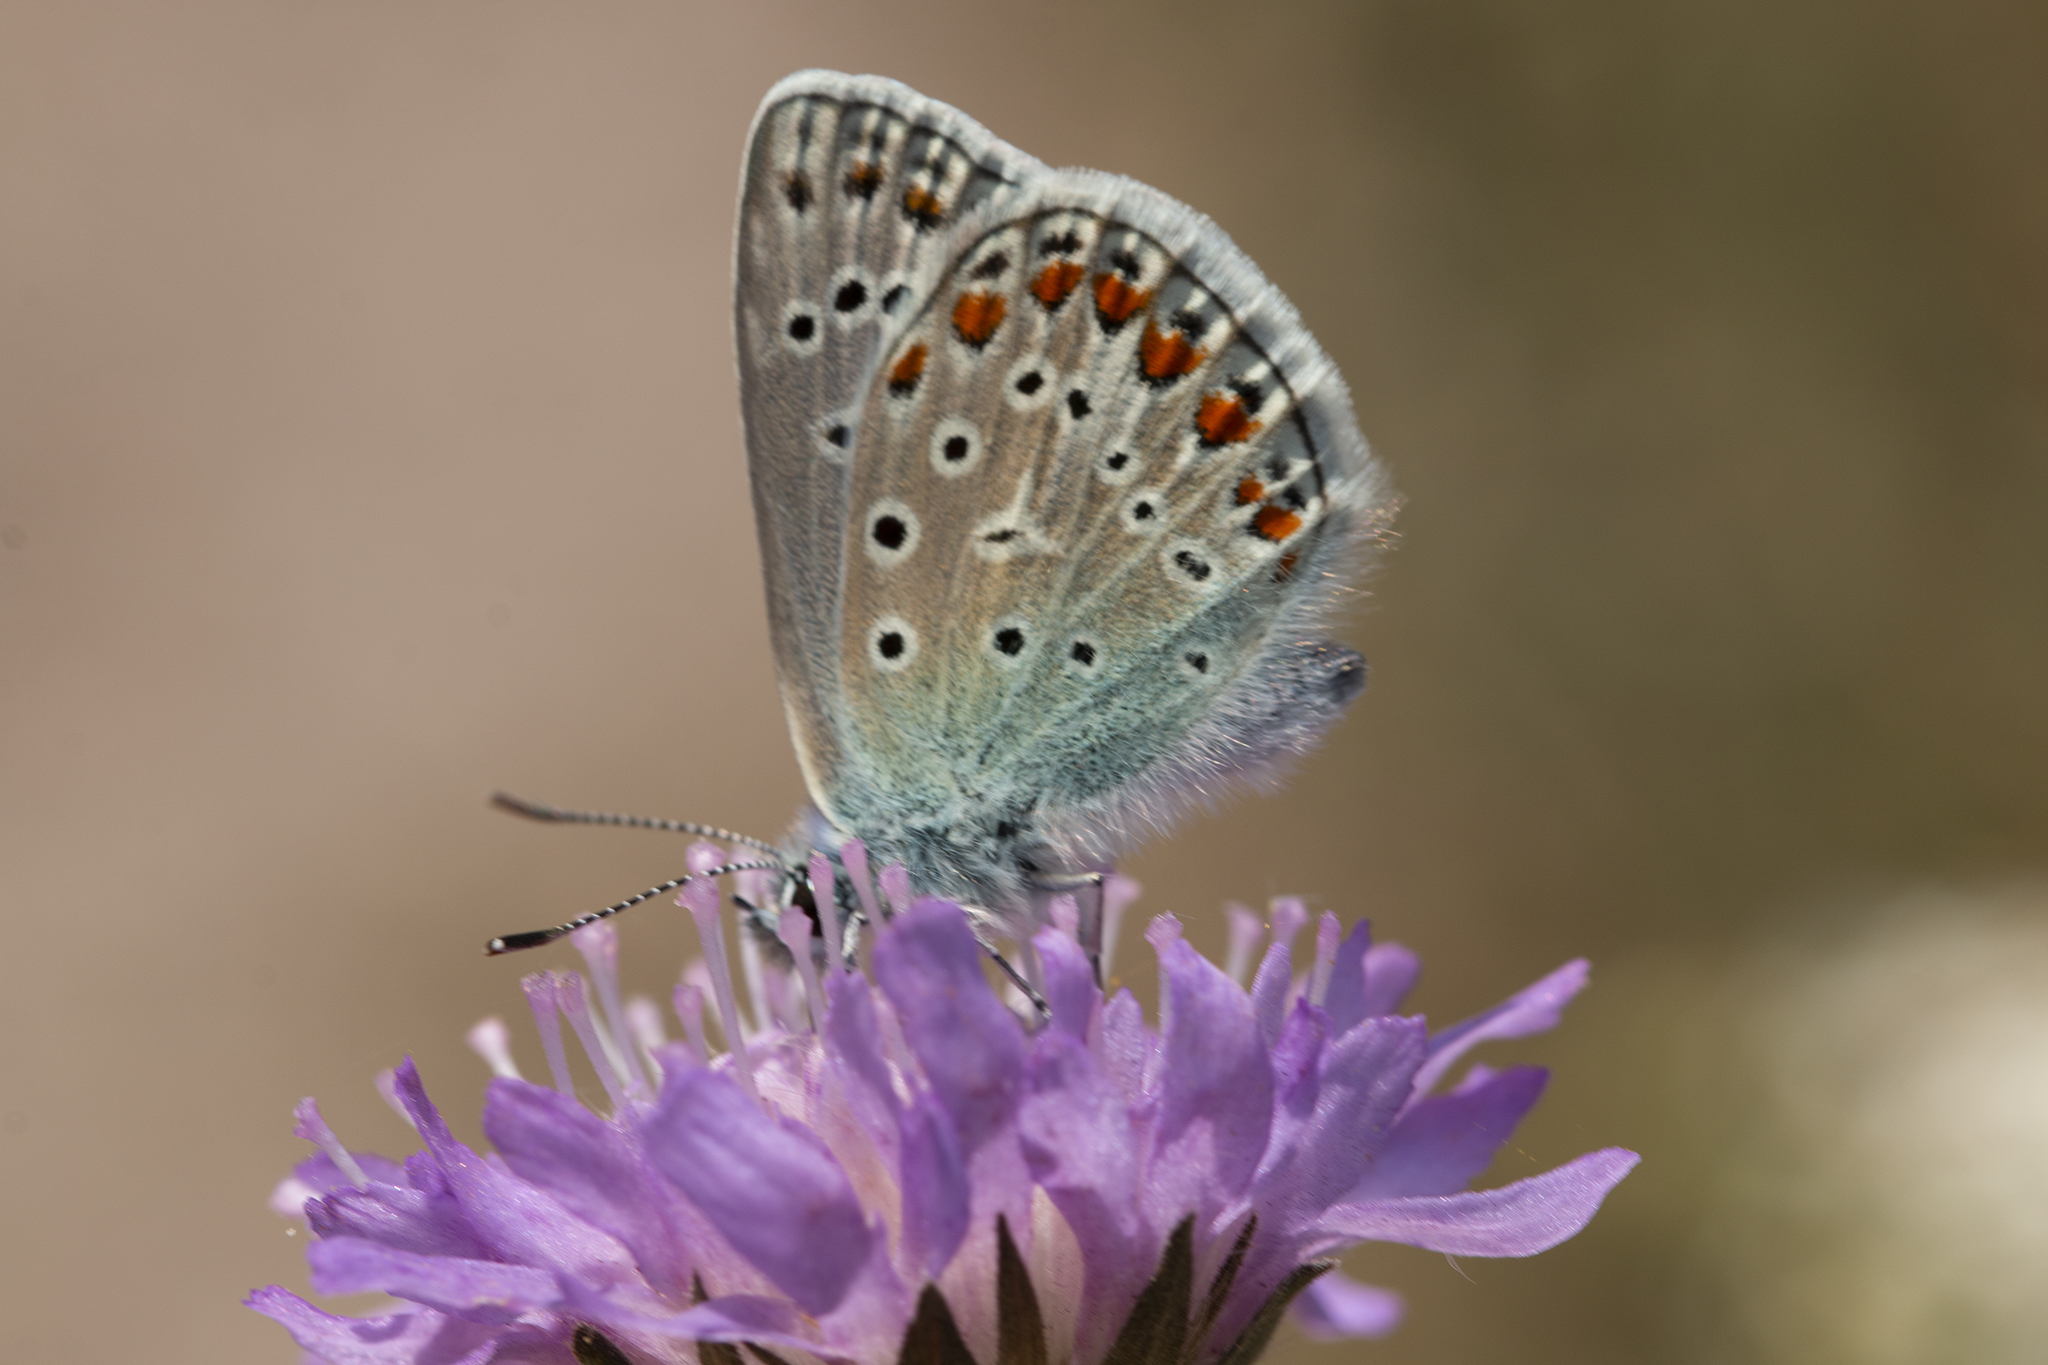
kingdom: Animalia
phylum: Arthropoda
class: Insecta
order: Lepidoptera
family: Lycaenidae
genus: Polyommatus
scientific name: Polyommatus icarus
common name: Common blue
